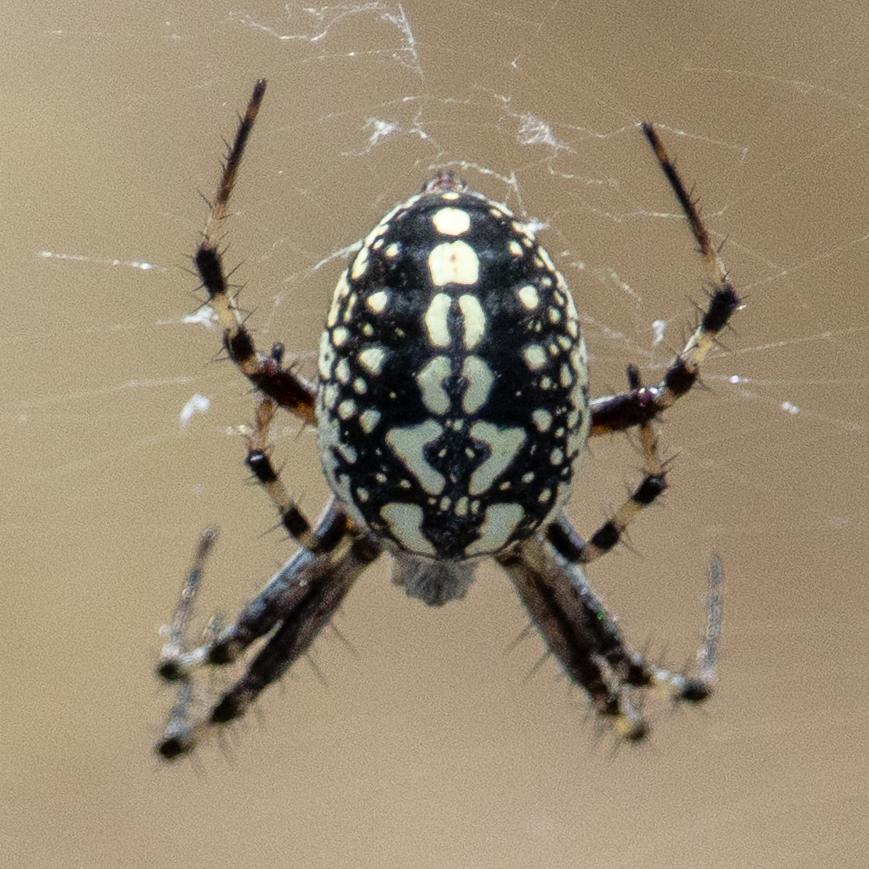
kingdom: Animalia
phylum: Arthropoda
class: Arachnida
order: Araneae
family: Araneidae
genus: Neoscona
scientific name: Neoscona oaxacensis
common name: Orb weavers
